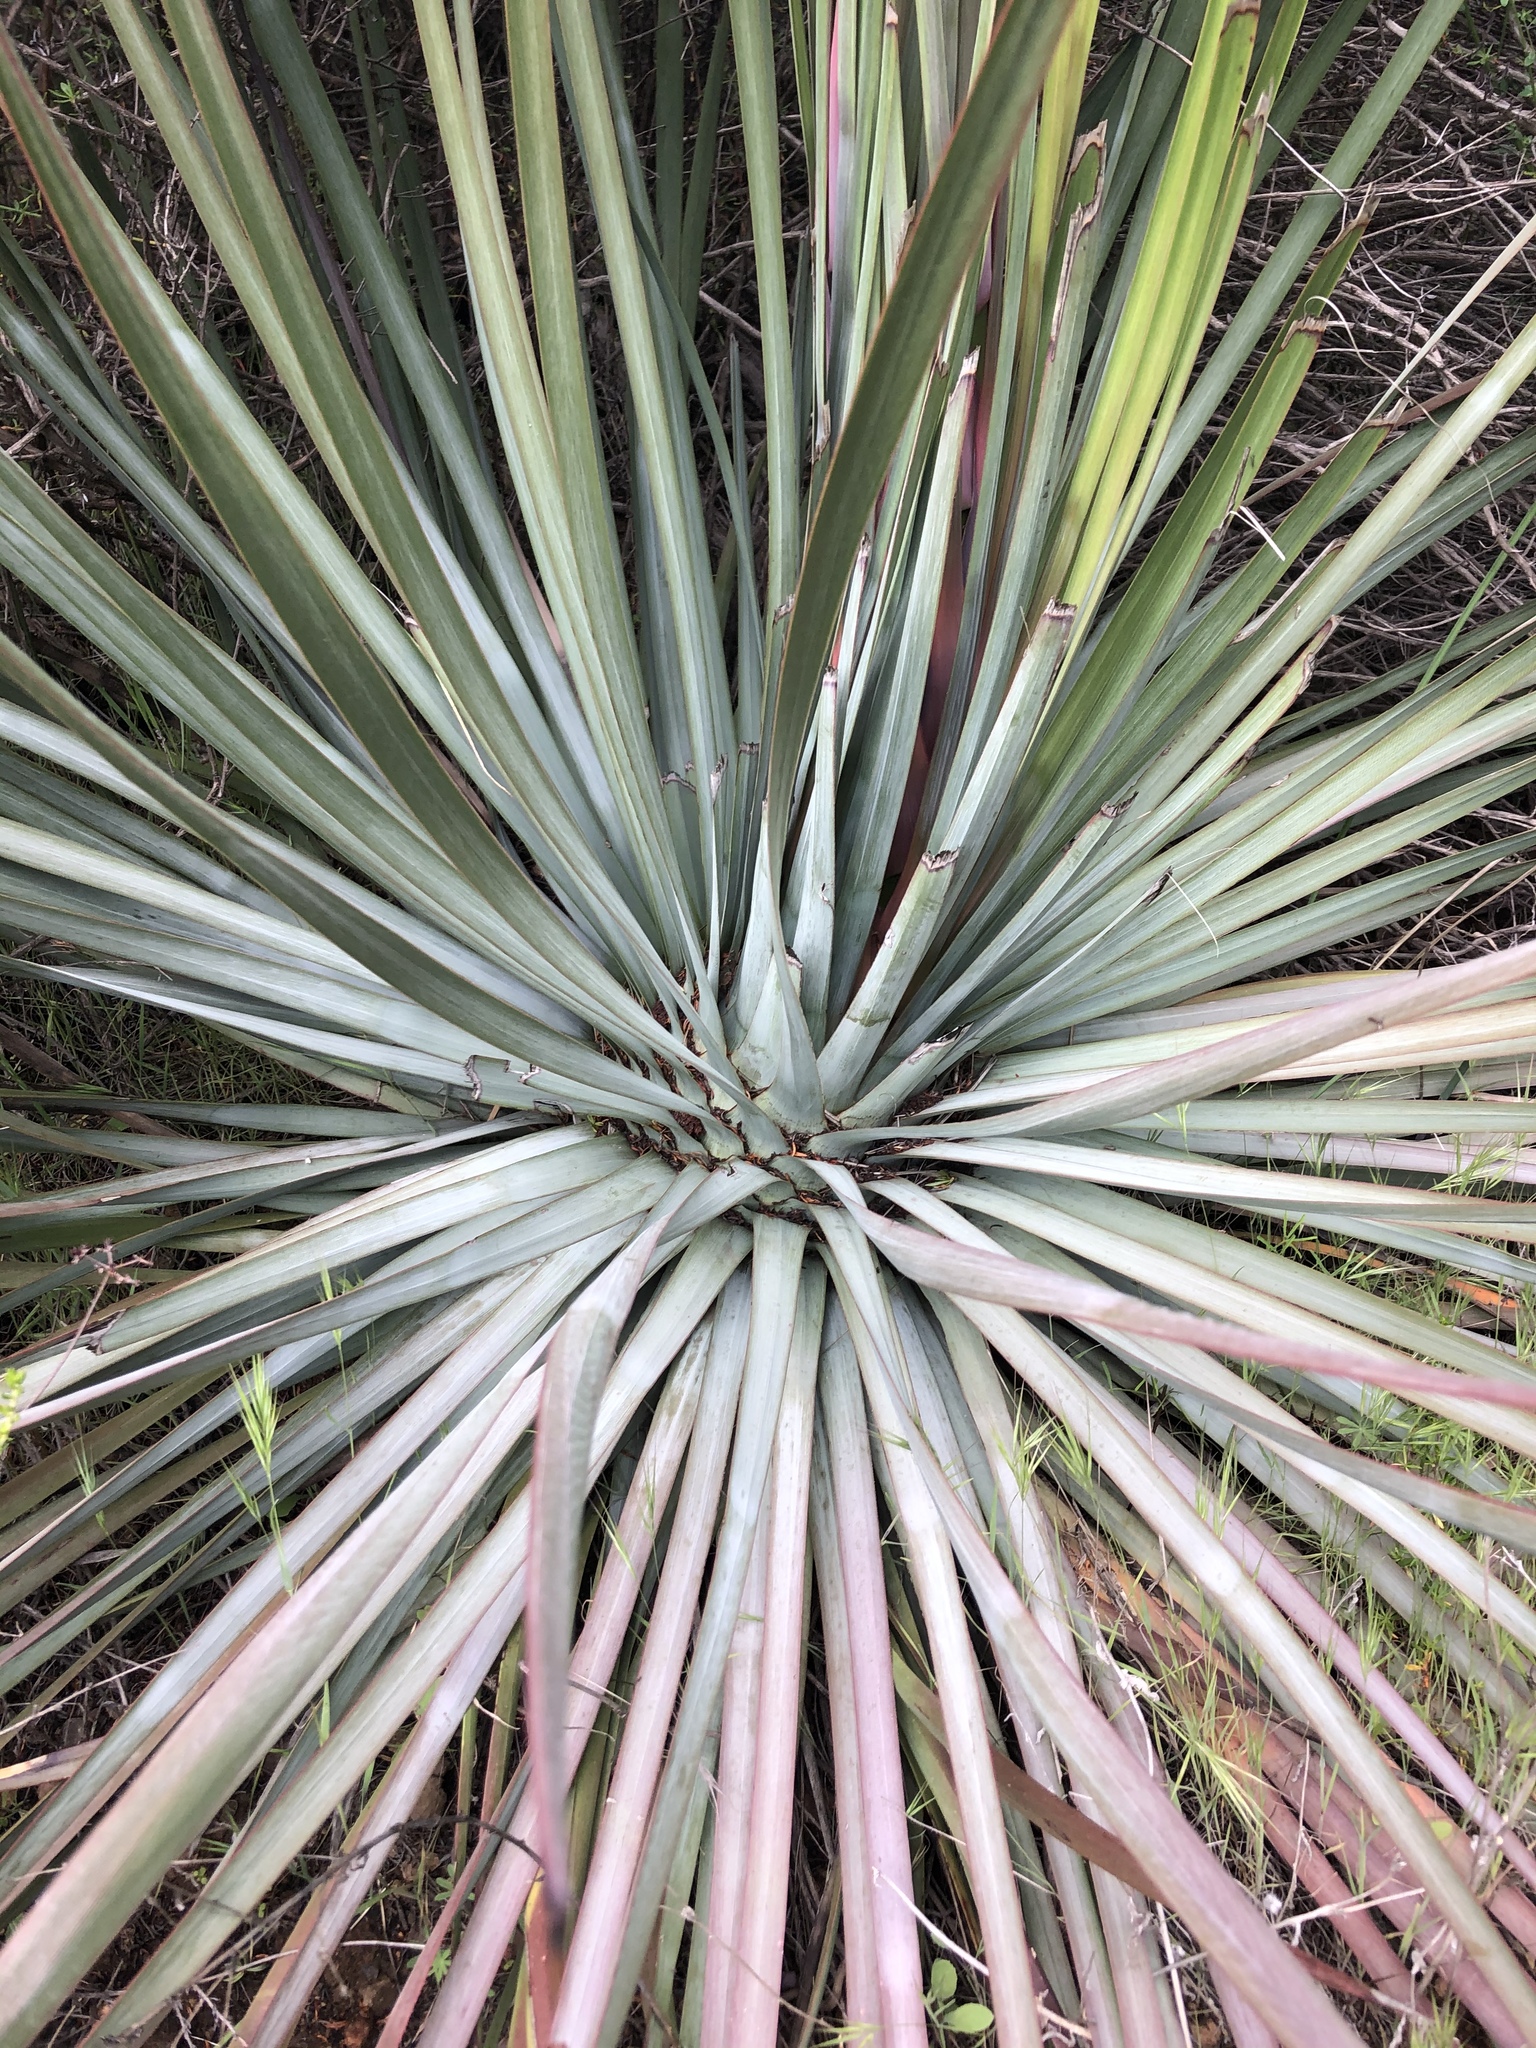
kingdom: Plantae
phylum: Tracheophyta
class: Liliopsida
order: Asparagales
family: Asparagaceae
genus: Hesperoyucca
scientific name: Hesperoyucca whipplei
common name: Our lord's-candle
